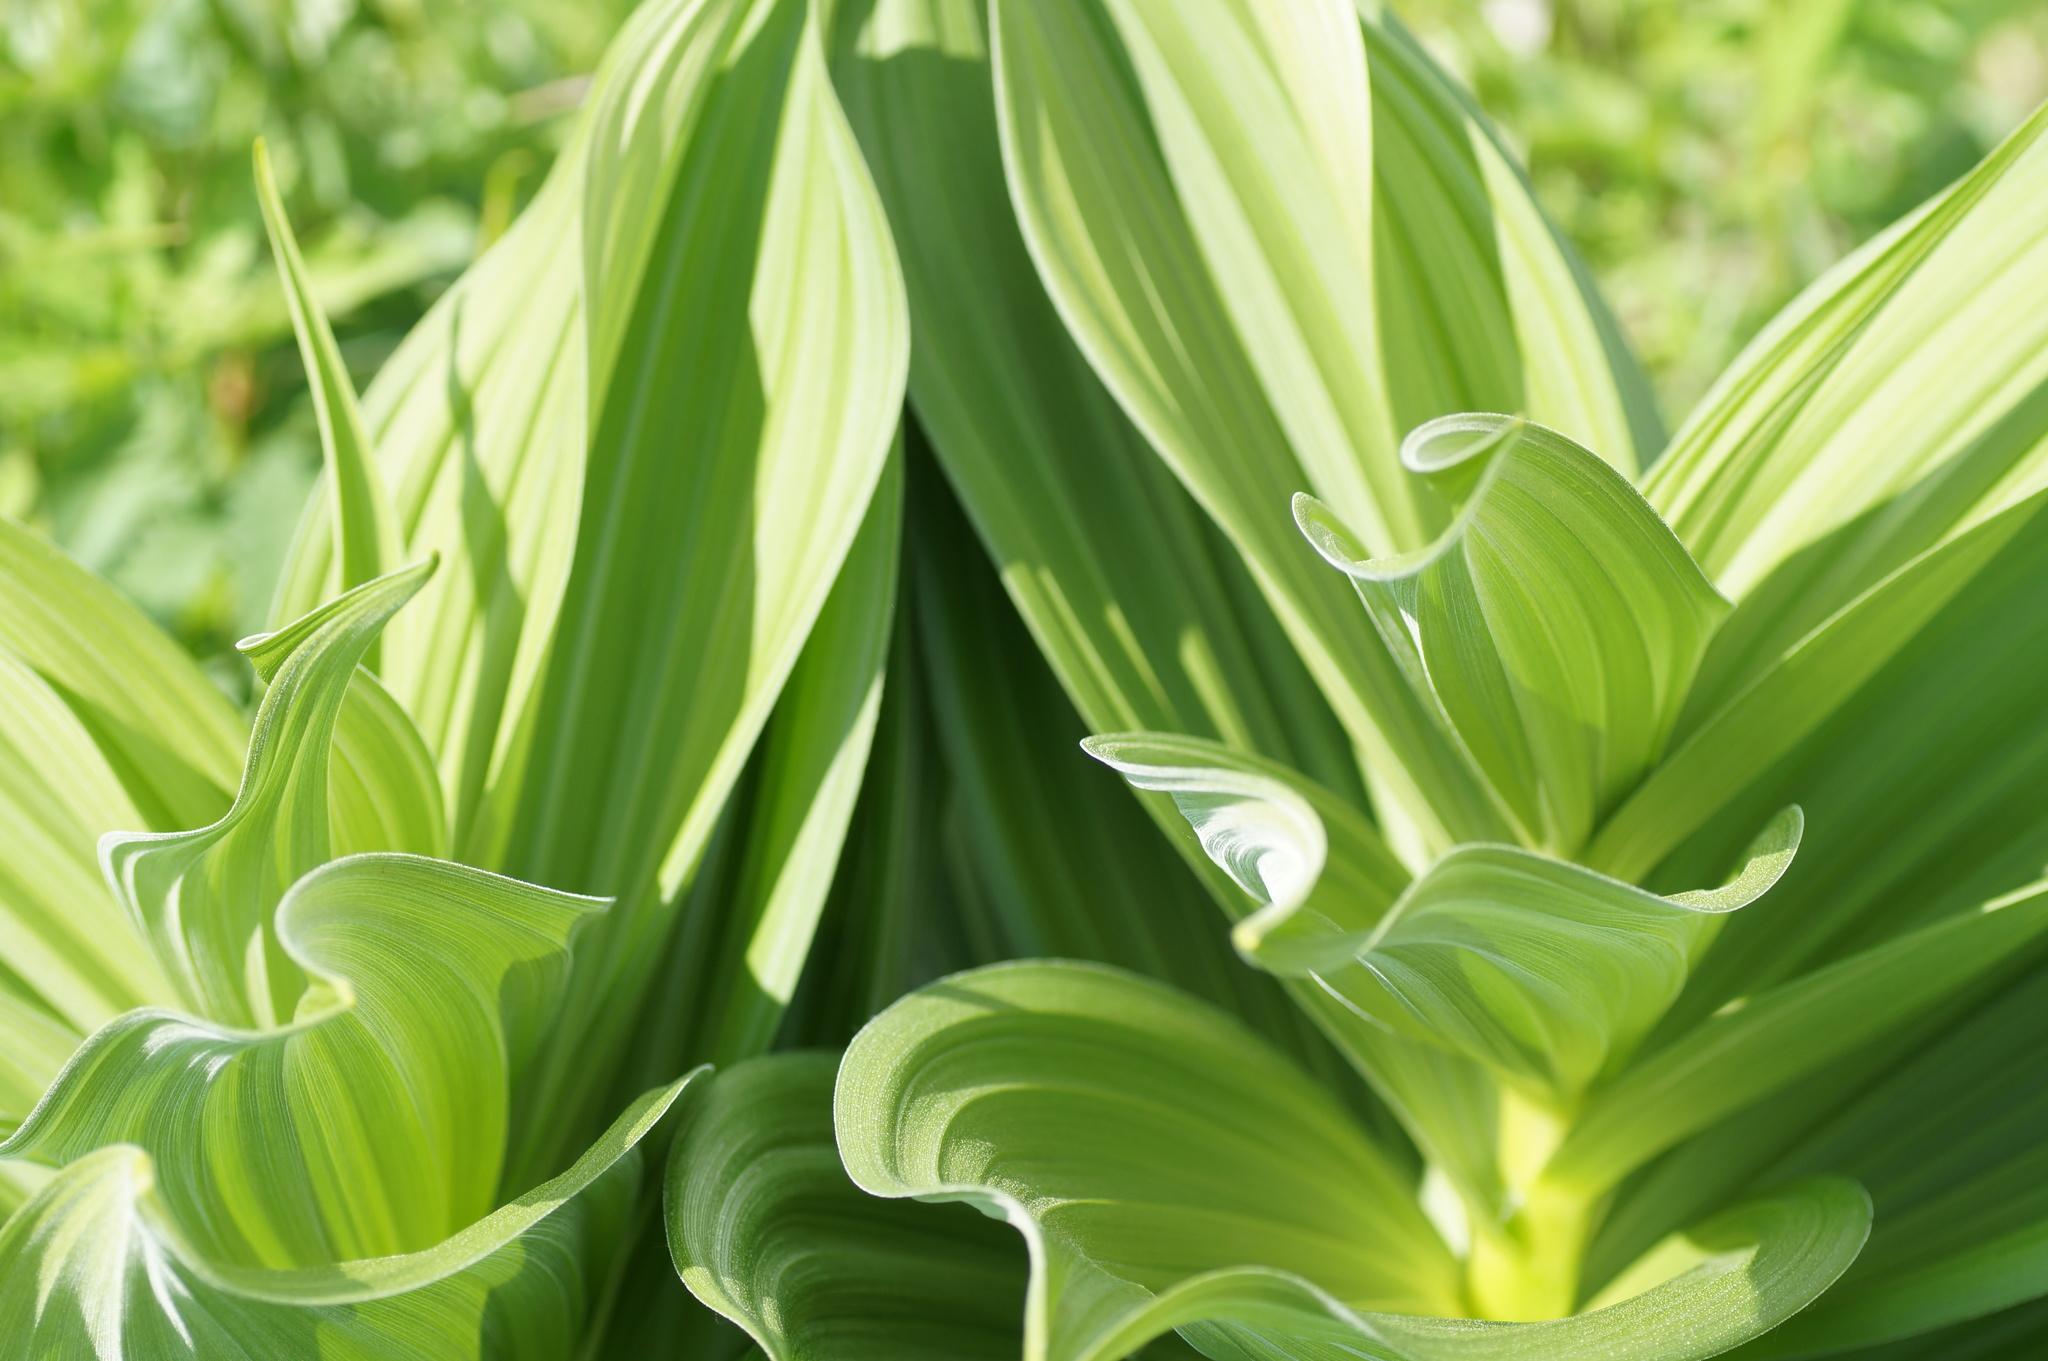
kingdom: Plantae
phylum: Tracheophyta
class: Liliopsida
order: Liliales
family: Melanthiaceae
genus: Veratrum
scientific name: Veratrum lobelianum
